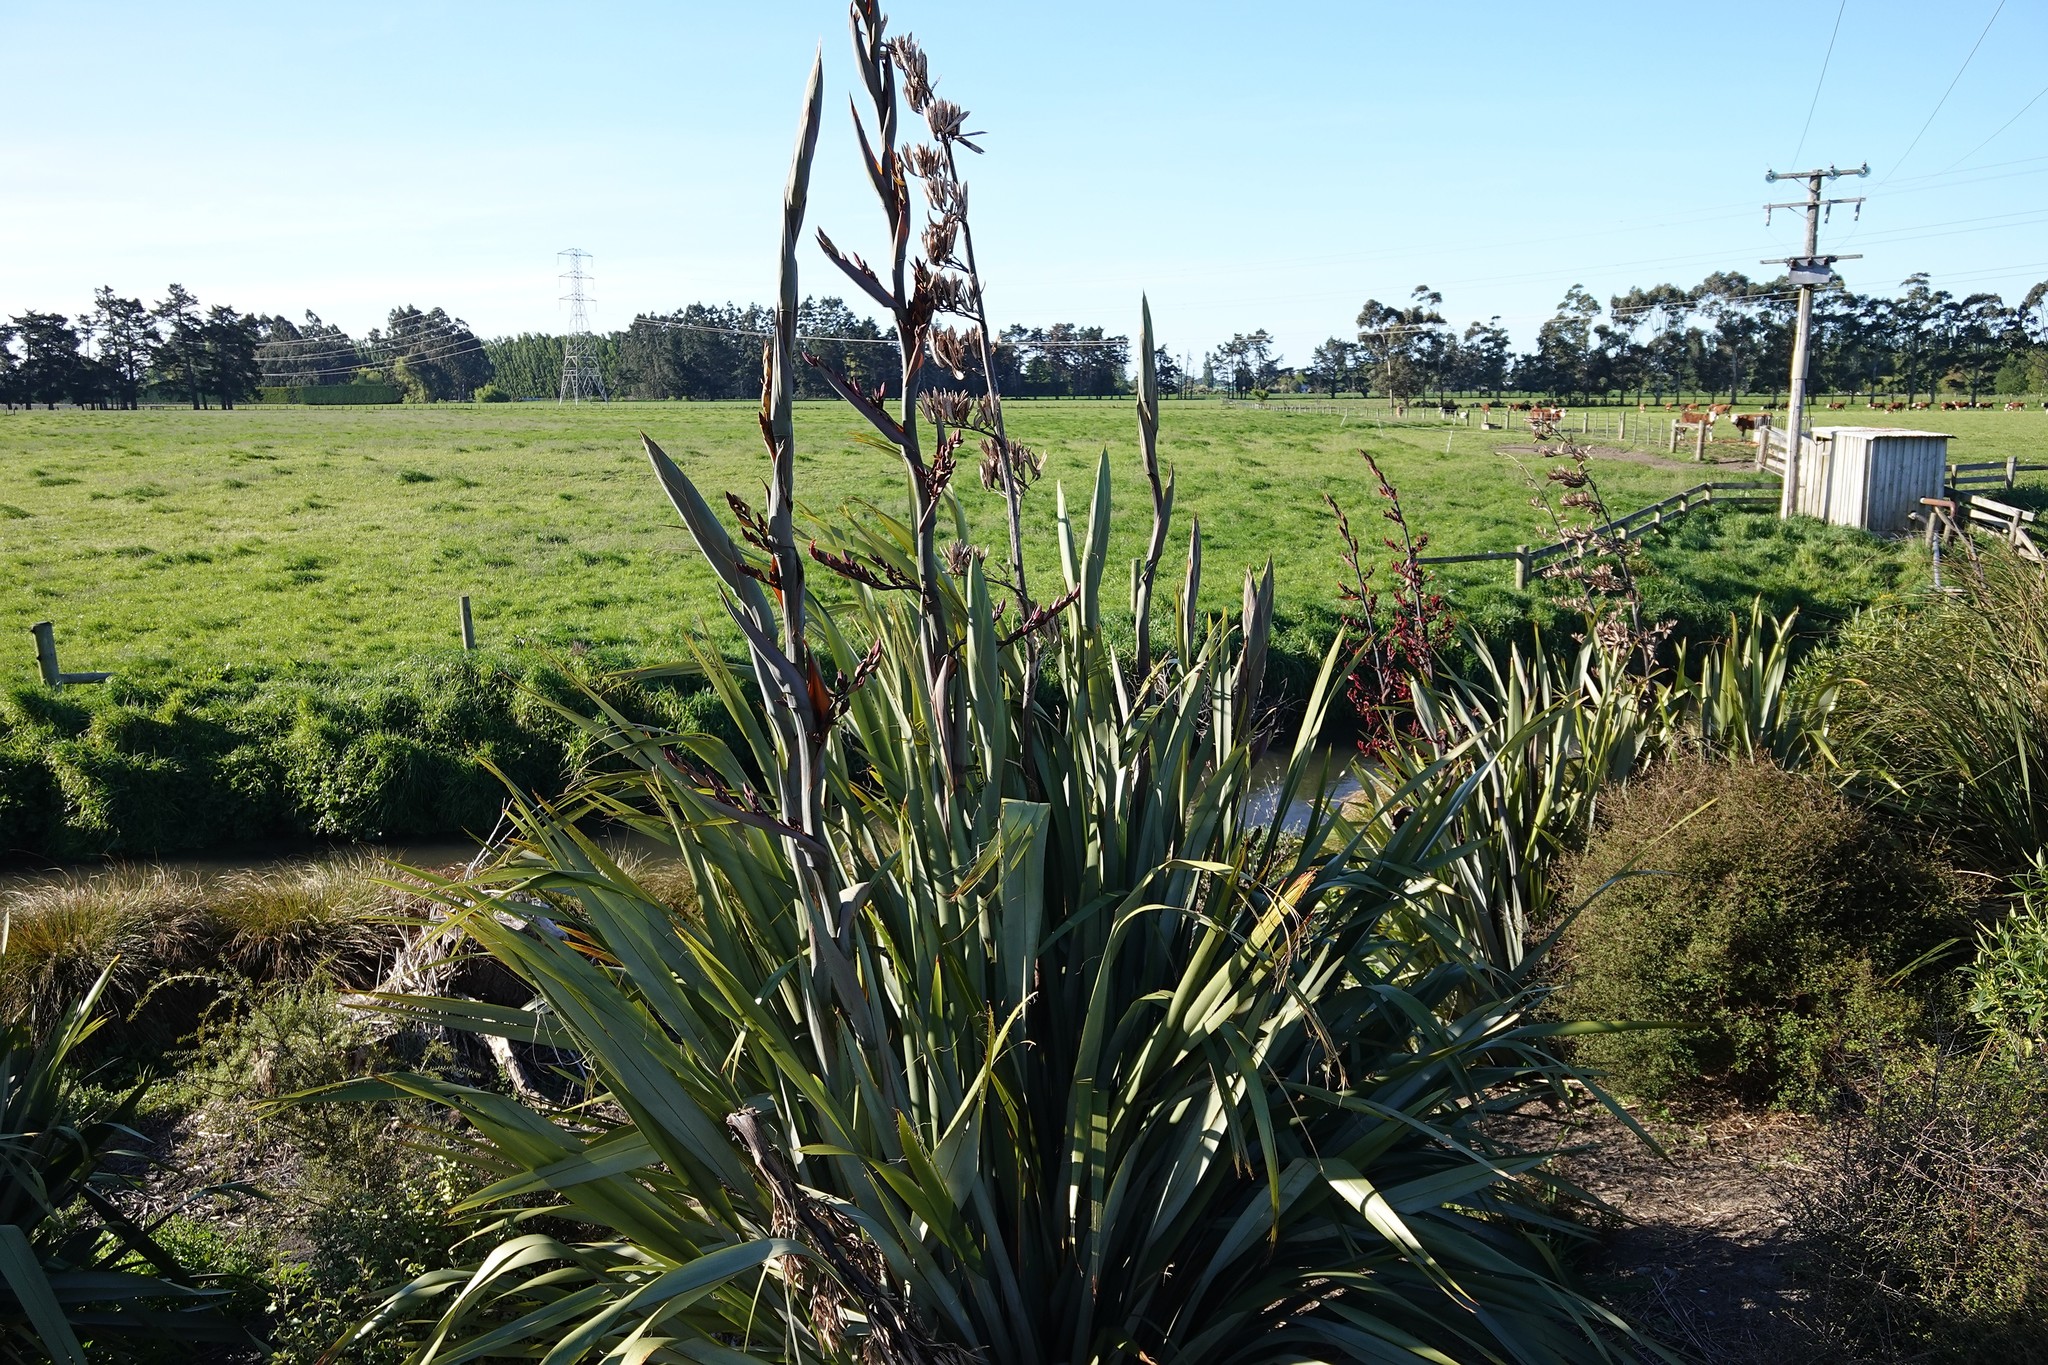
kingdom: Plantae
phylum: Tracheophyta
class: Liliopsida
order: Asparagales
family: Asphodelaceae
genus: Phormium
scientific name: Phormium tenax
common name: New zealand flax
